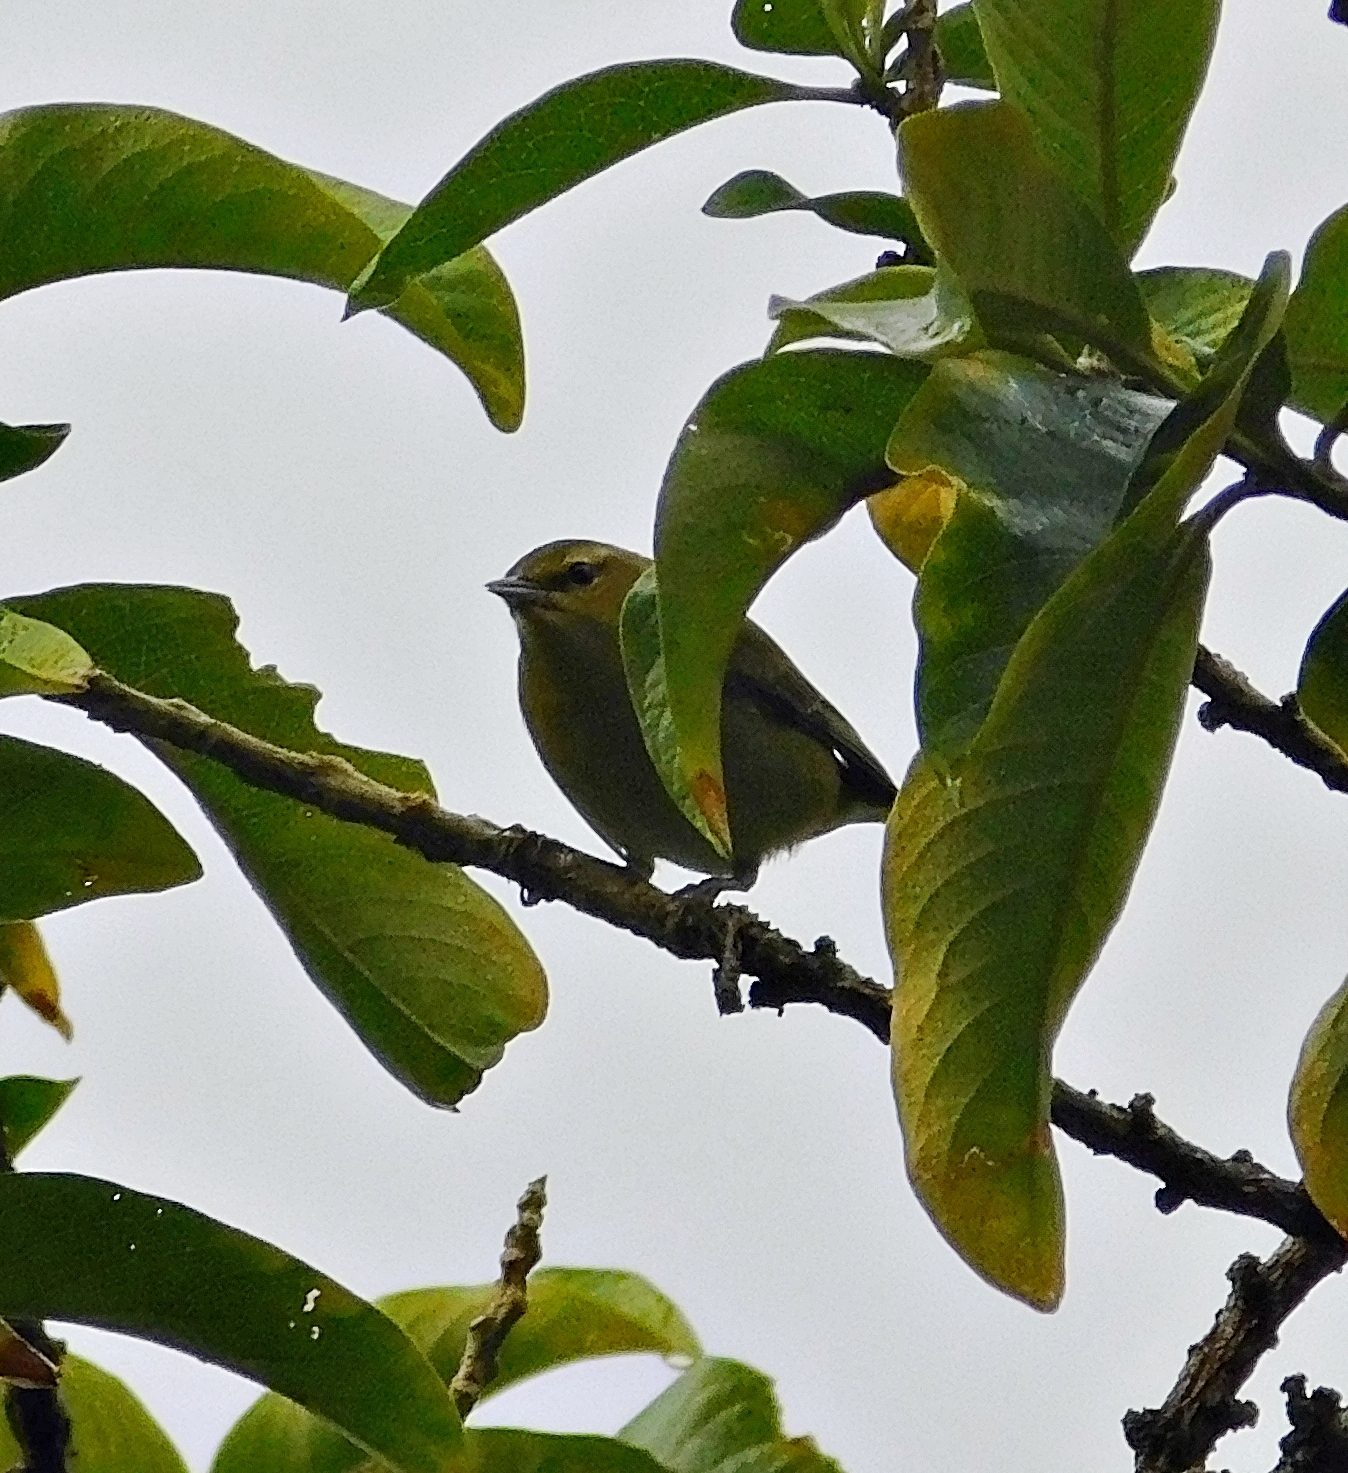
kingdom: Animalia
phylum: Chordata
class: Aves
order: Passeriformes
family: Parulidae
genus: Leiothlypis
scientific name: Leiothlypis peregrina
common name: Tennessee warbler
